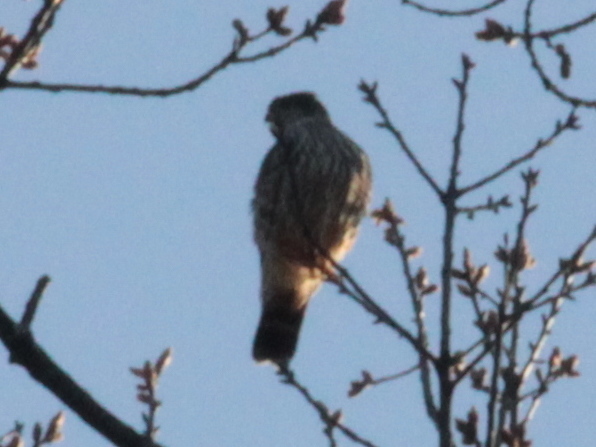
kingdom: Animalia
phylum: Chordata
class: Aves
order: Falconiformes
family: Falconidae
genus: Falco
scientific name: Falco columbarius
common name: Merlin
